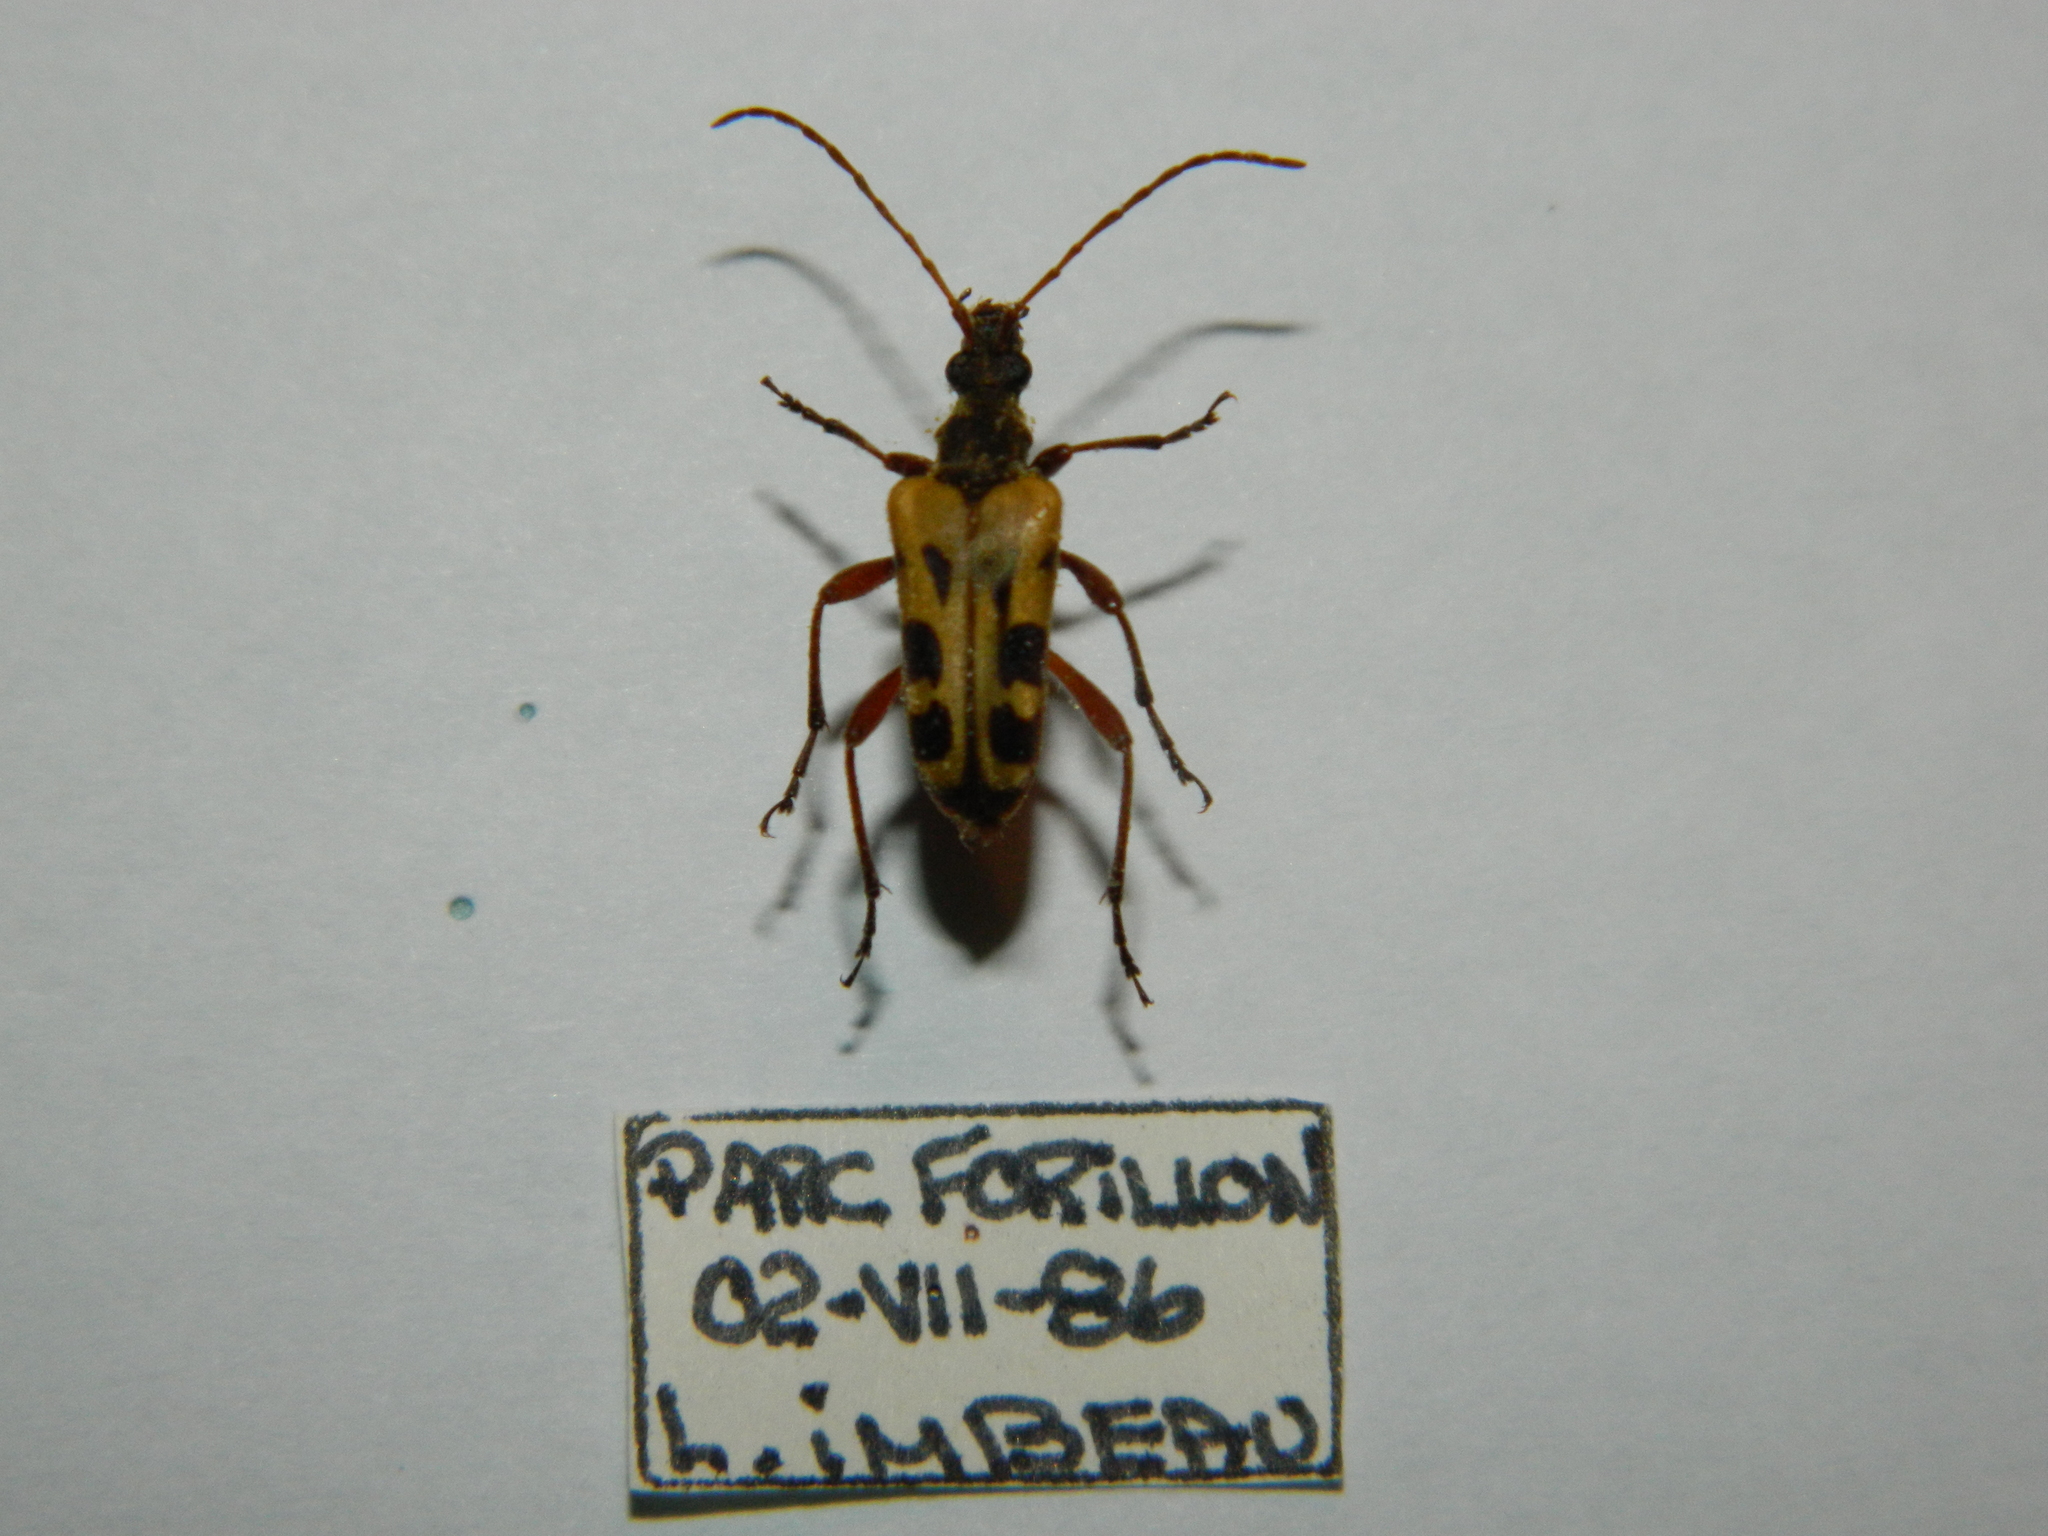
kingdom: Animalia
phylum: Arthropoda
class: Insecta
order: Coleoptera
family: Cerambycidae
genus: Evodinus
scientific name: Evodinus monticola
